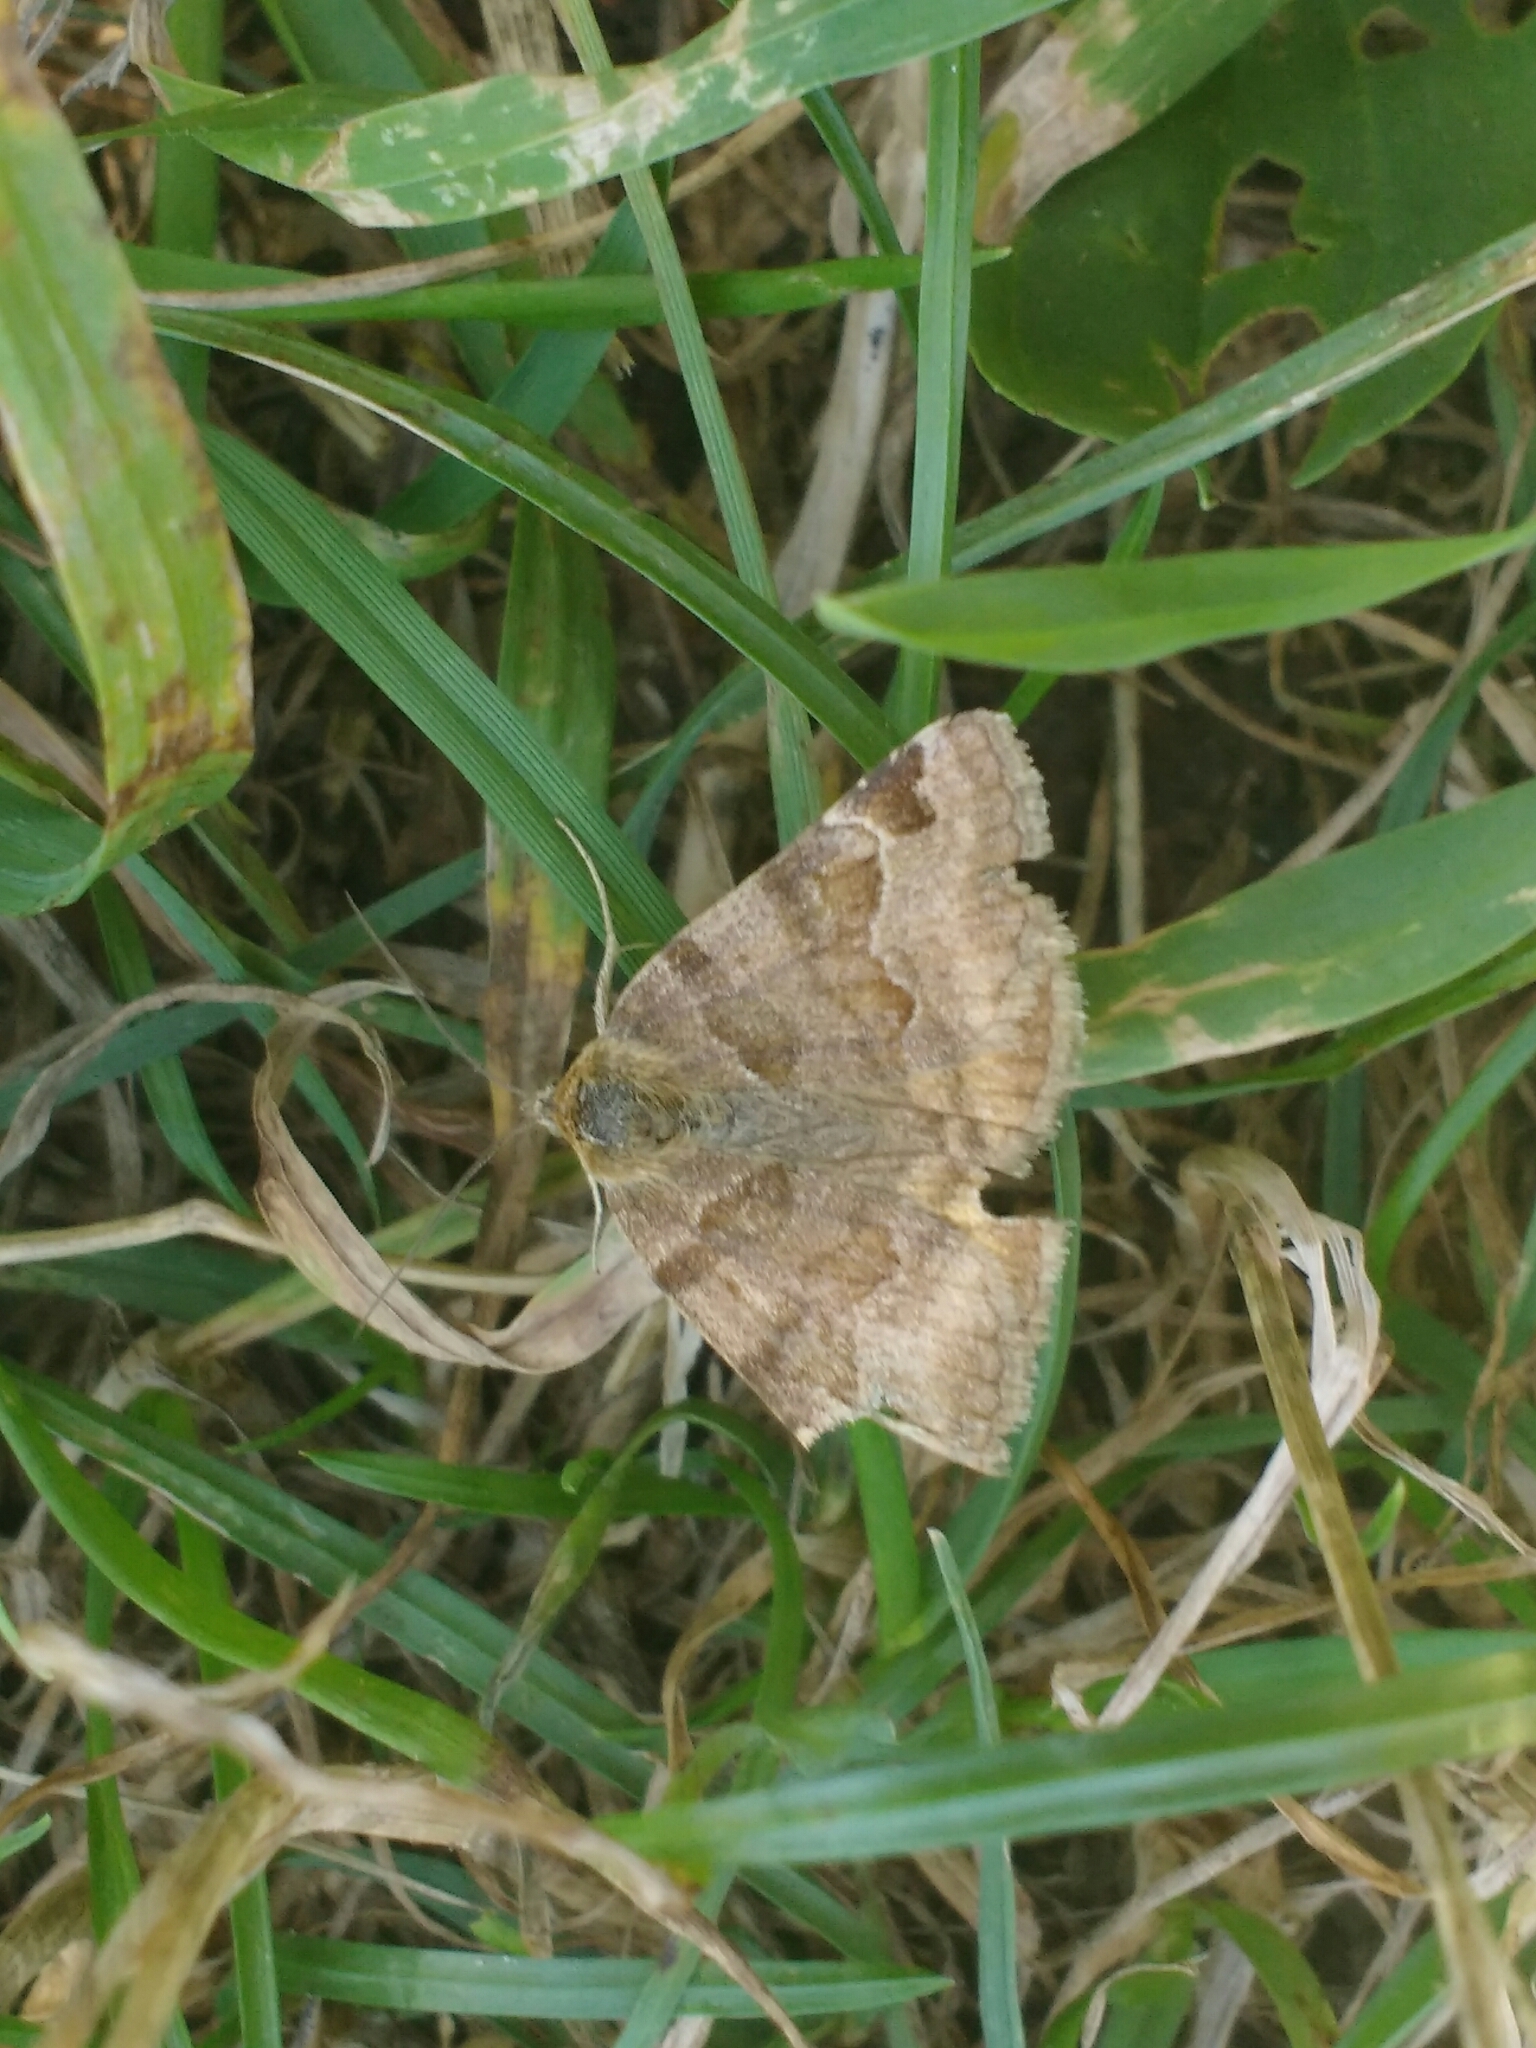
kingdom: Animalia
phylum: Arthropoda
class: Insecta
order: Lepidoptera
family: Erebidae
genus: Euclidia
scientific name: Euclidia glyphica
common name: Burnet companion
